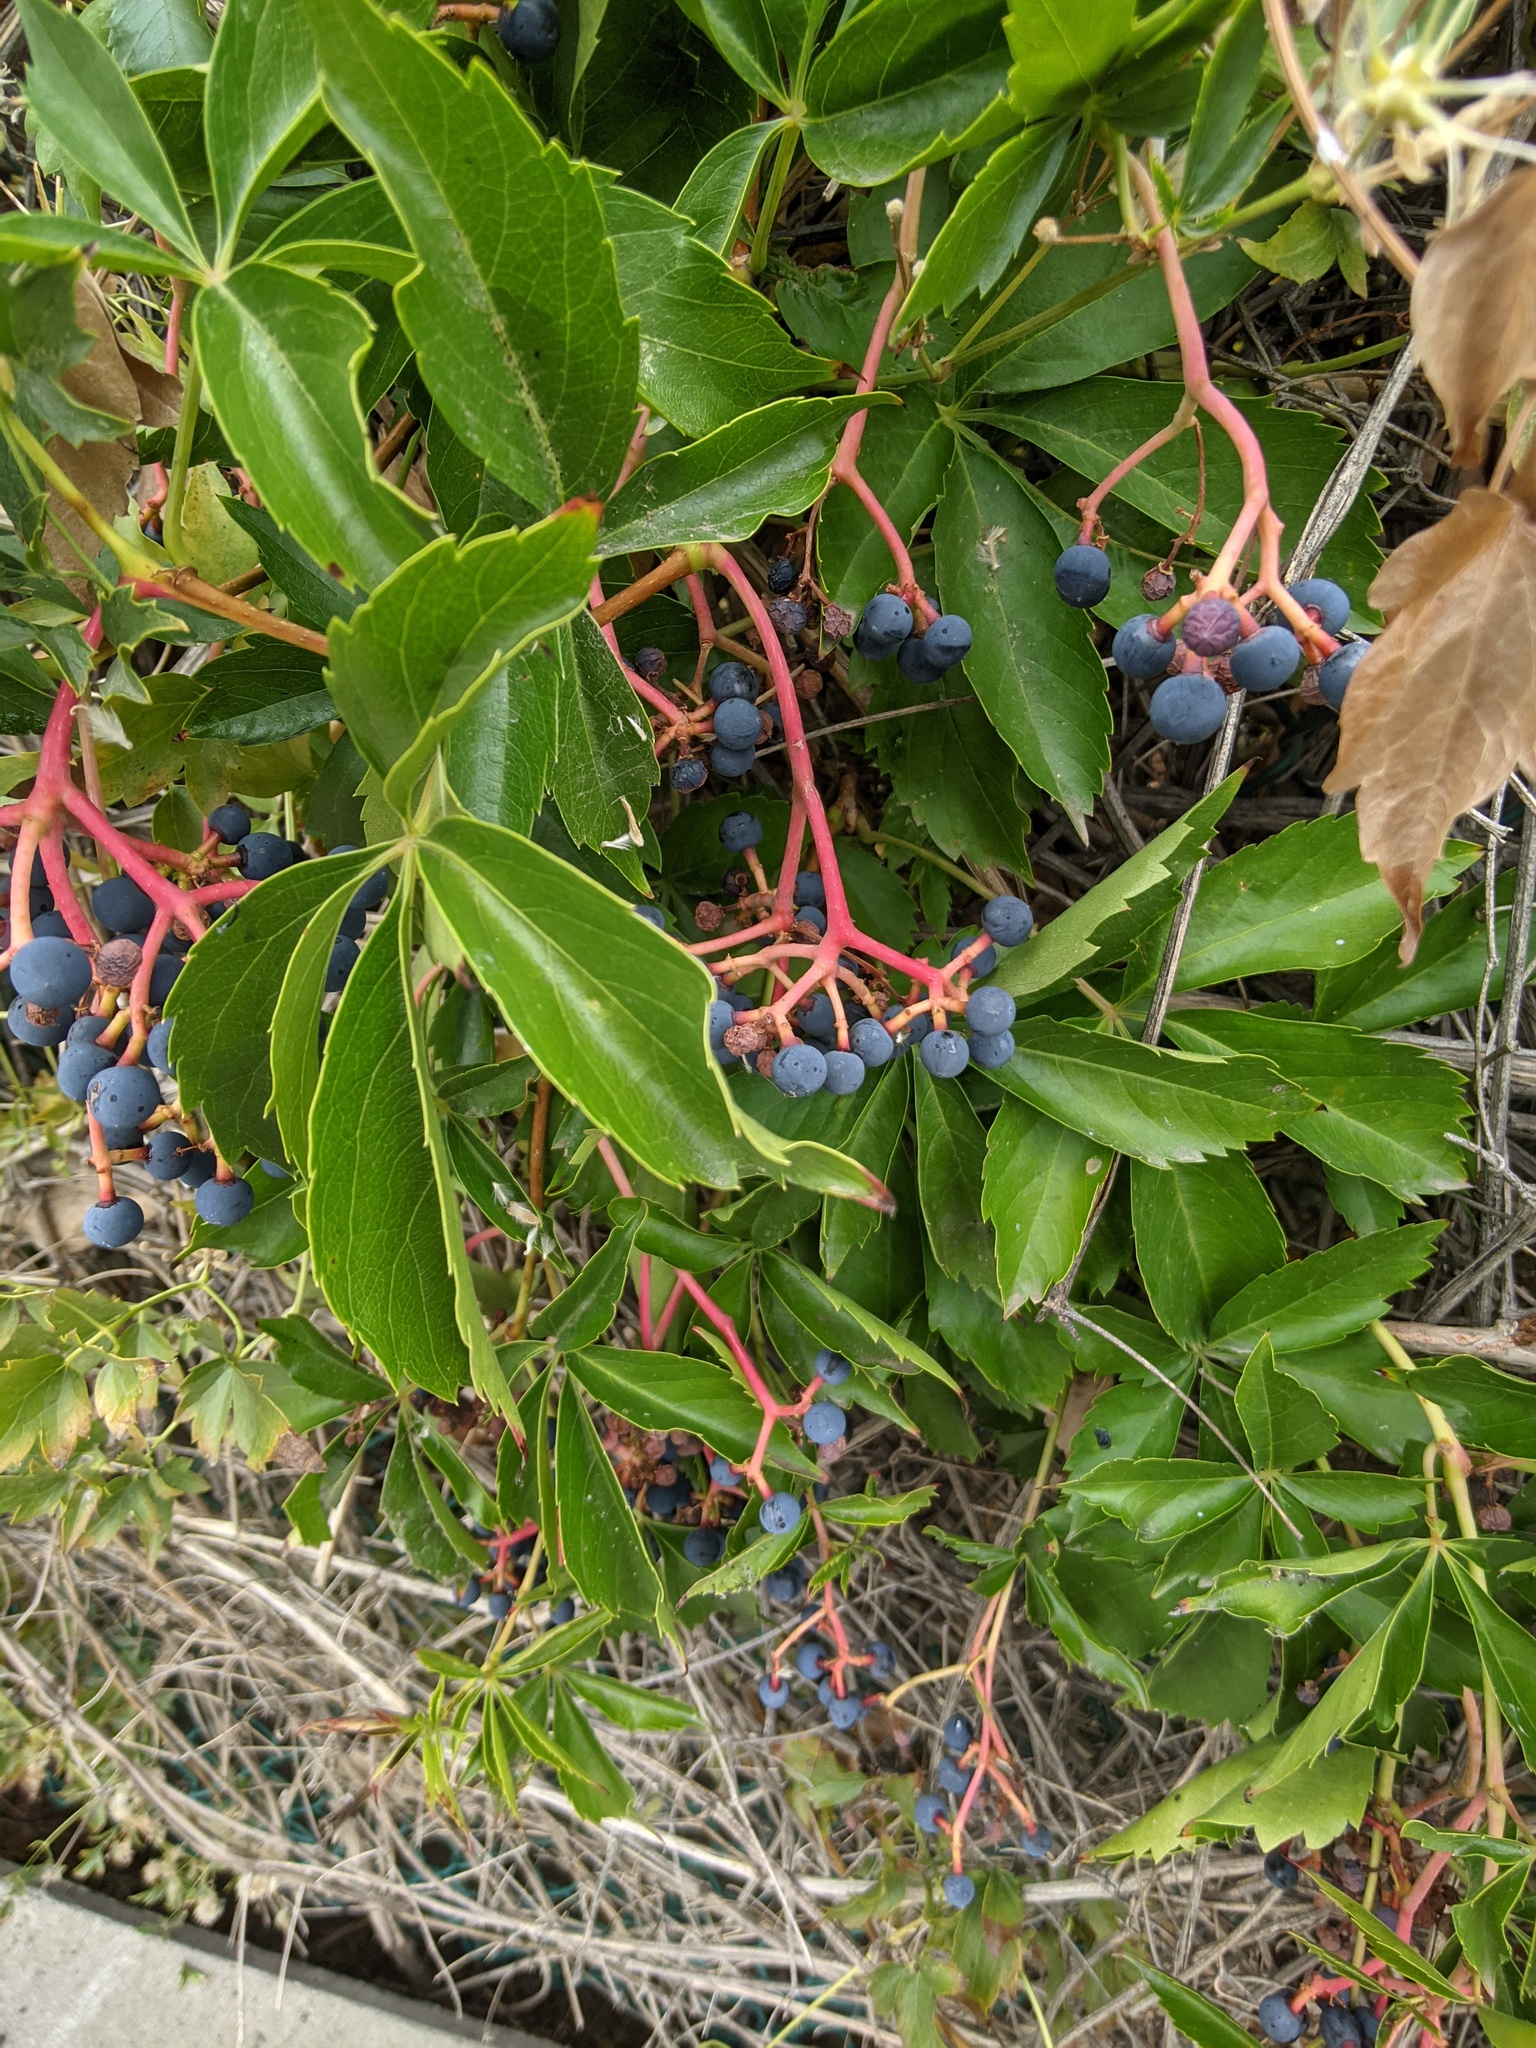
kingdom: Plantae
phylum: Tracheophyta
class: Magnoliopsida
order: Vitales
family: Vitaceae
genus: Parthenocissus
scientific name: Parthenocissus quinquefolia
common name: Virginia-creeper
